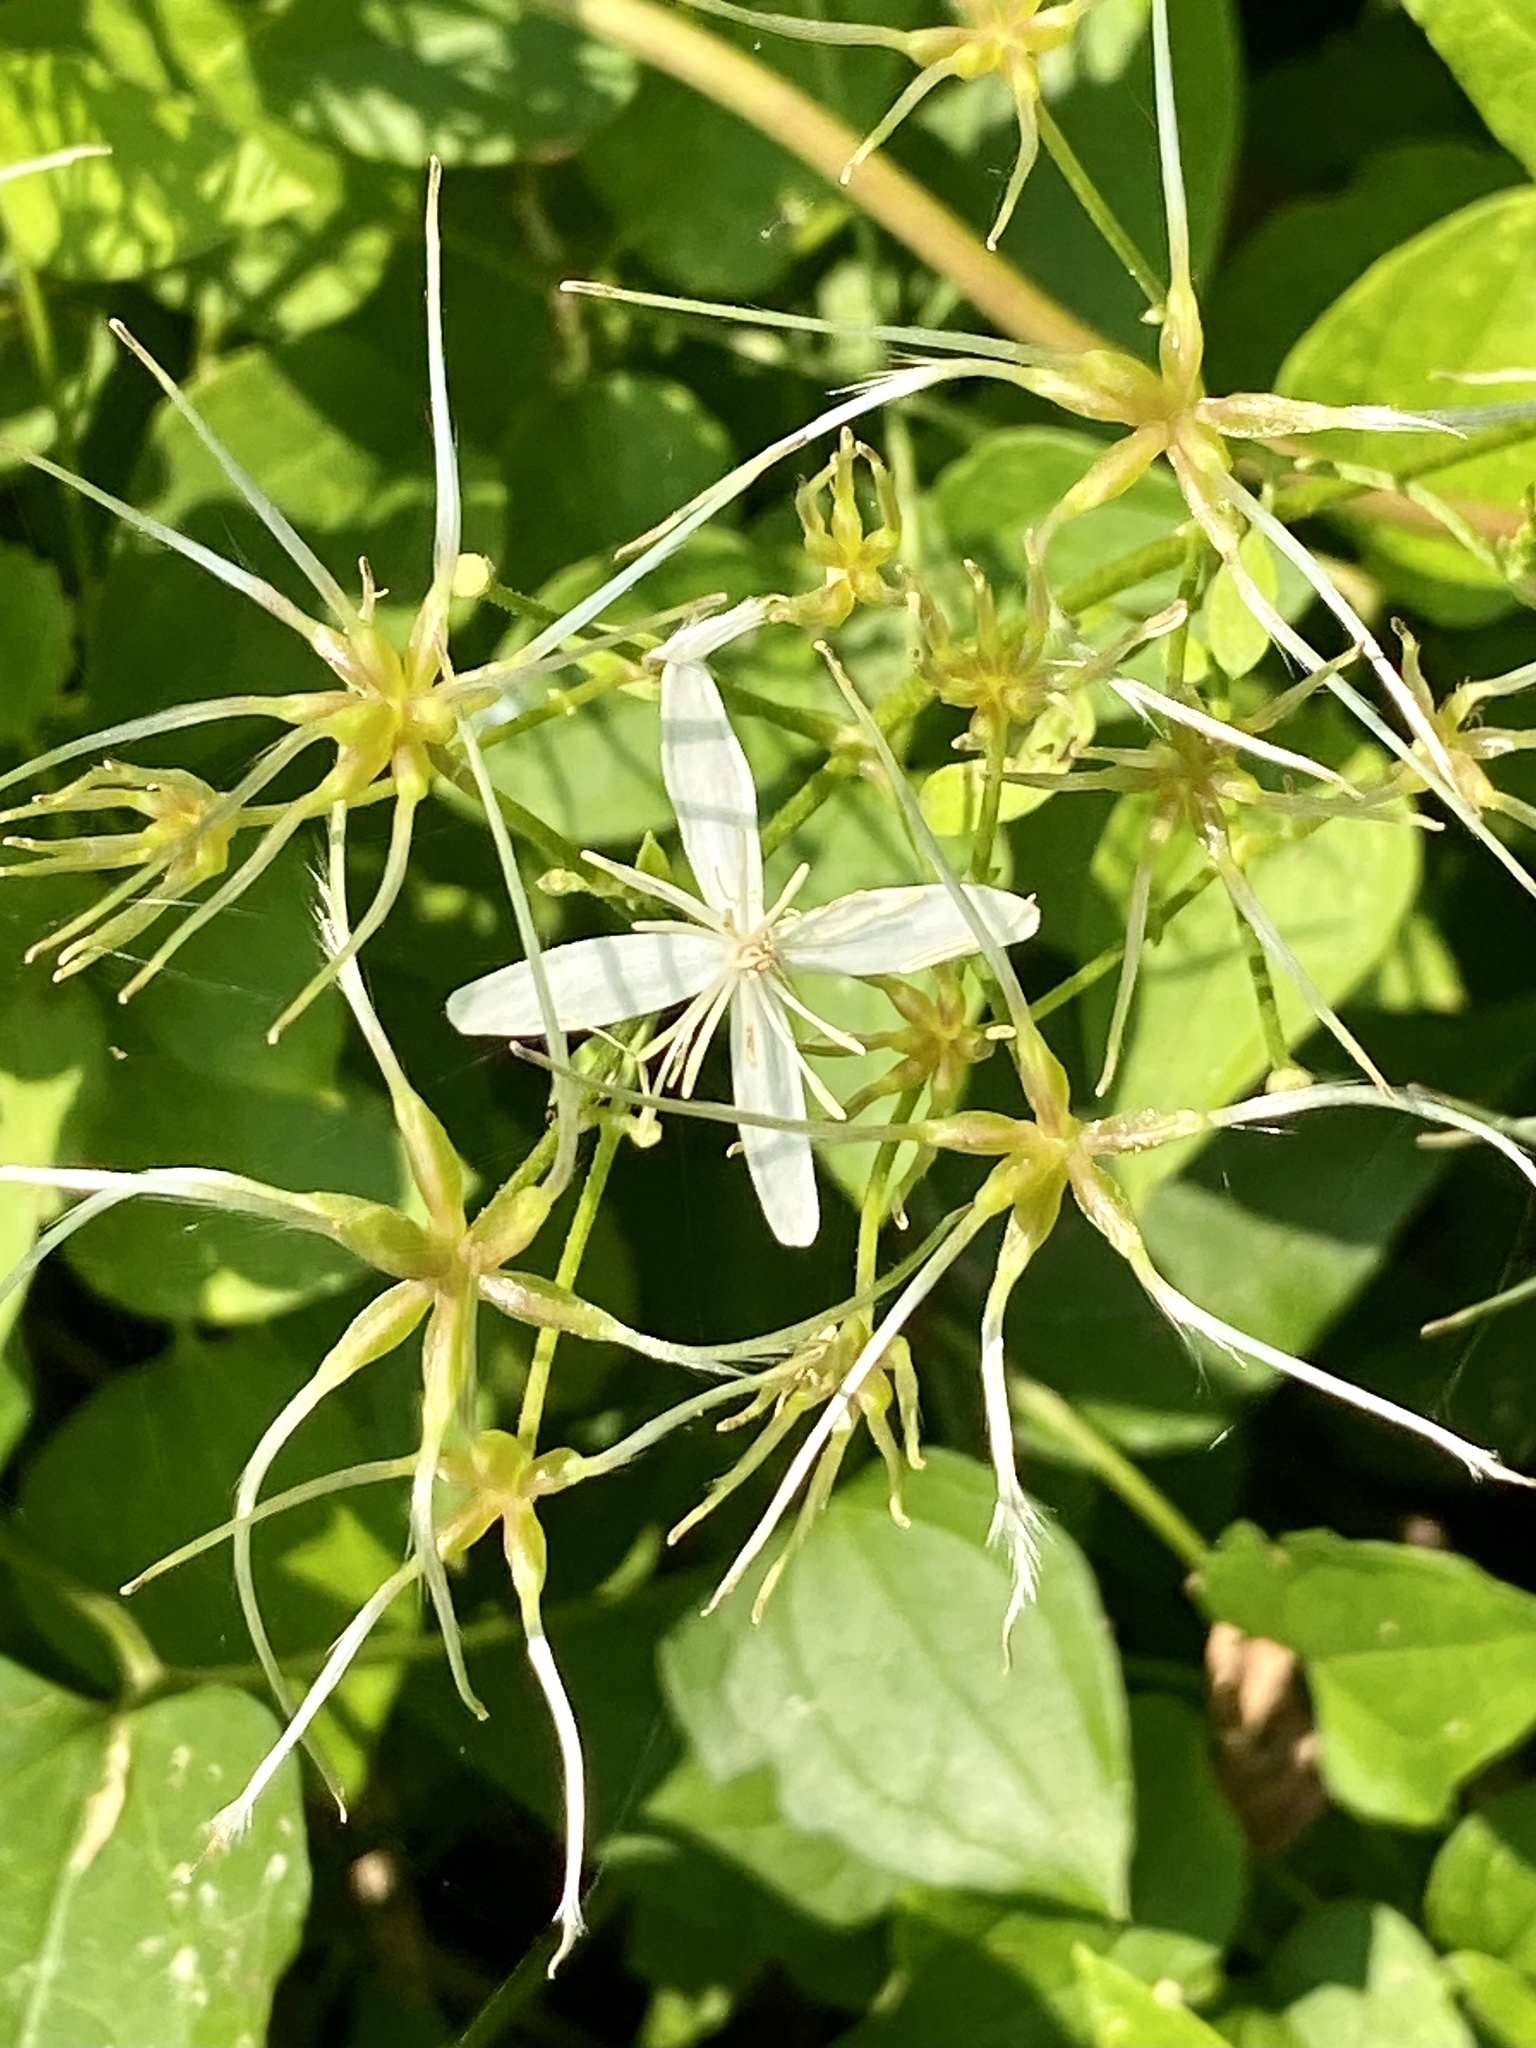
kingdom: Plantae
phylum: Tracheophyta
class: Magnoliopsida
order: Ranunculales
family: Ranunculaceae
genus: Clematis
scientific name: Clematis terniflora
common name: Sweet autumn clematis
